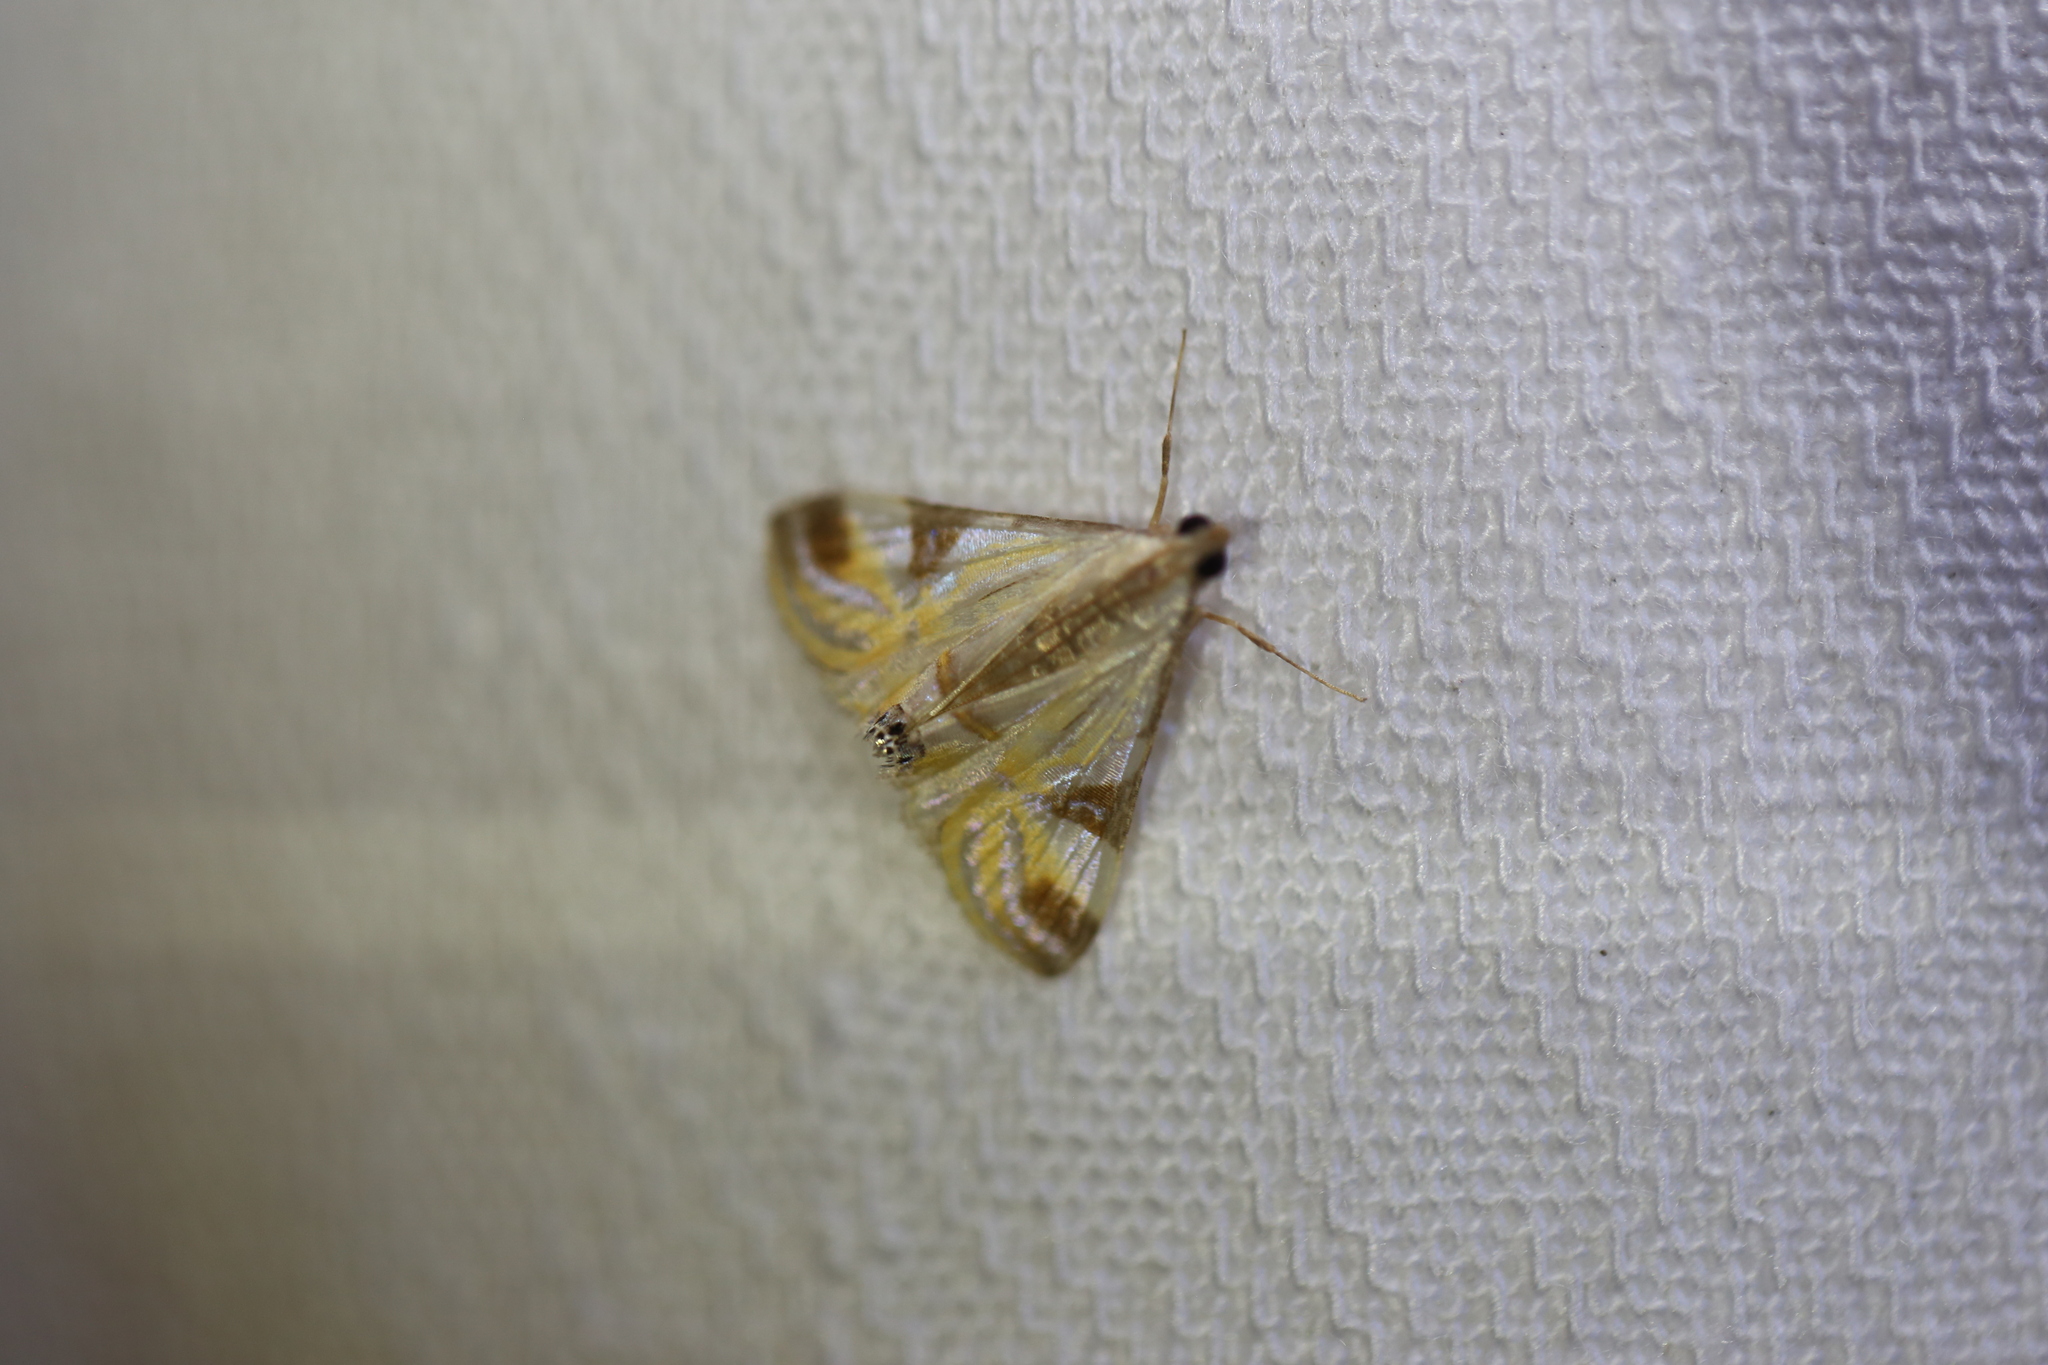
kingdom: Animalia
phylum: Arthropoda
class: Insecta
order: Lepidoptera
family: Crambidae
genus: Talanga
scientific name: Talanga tolumnialis
